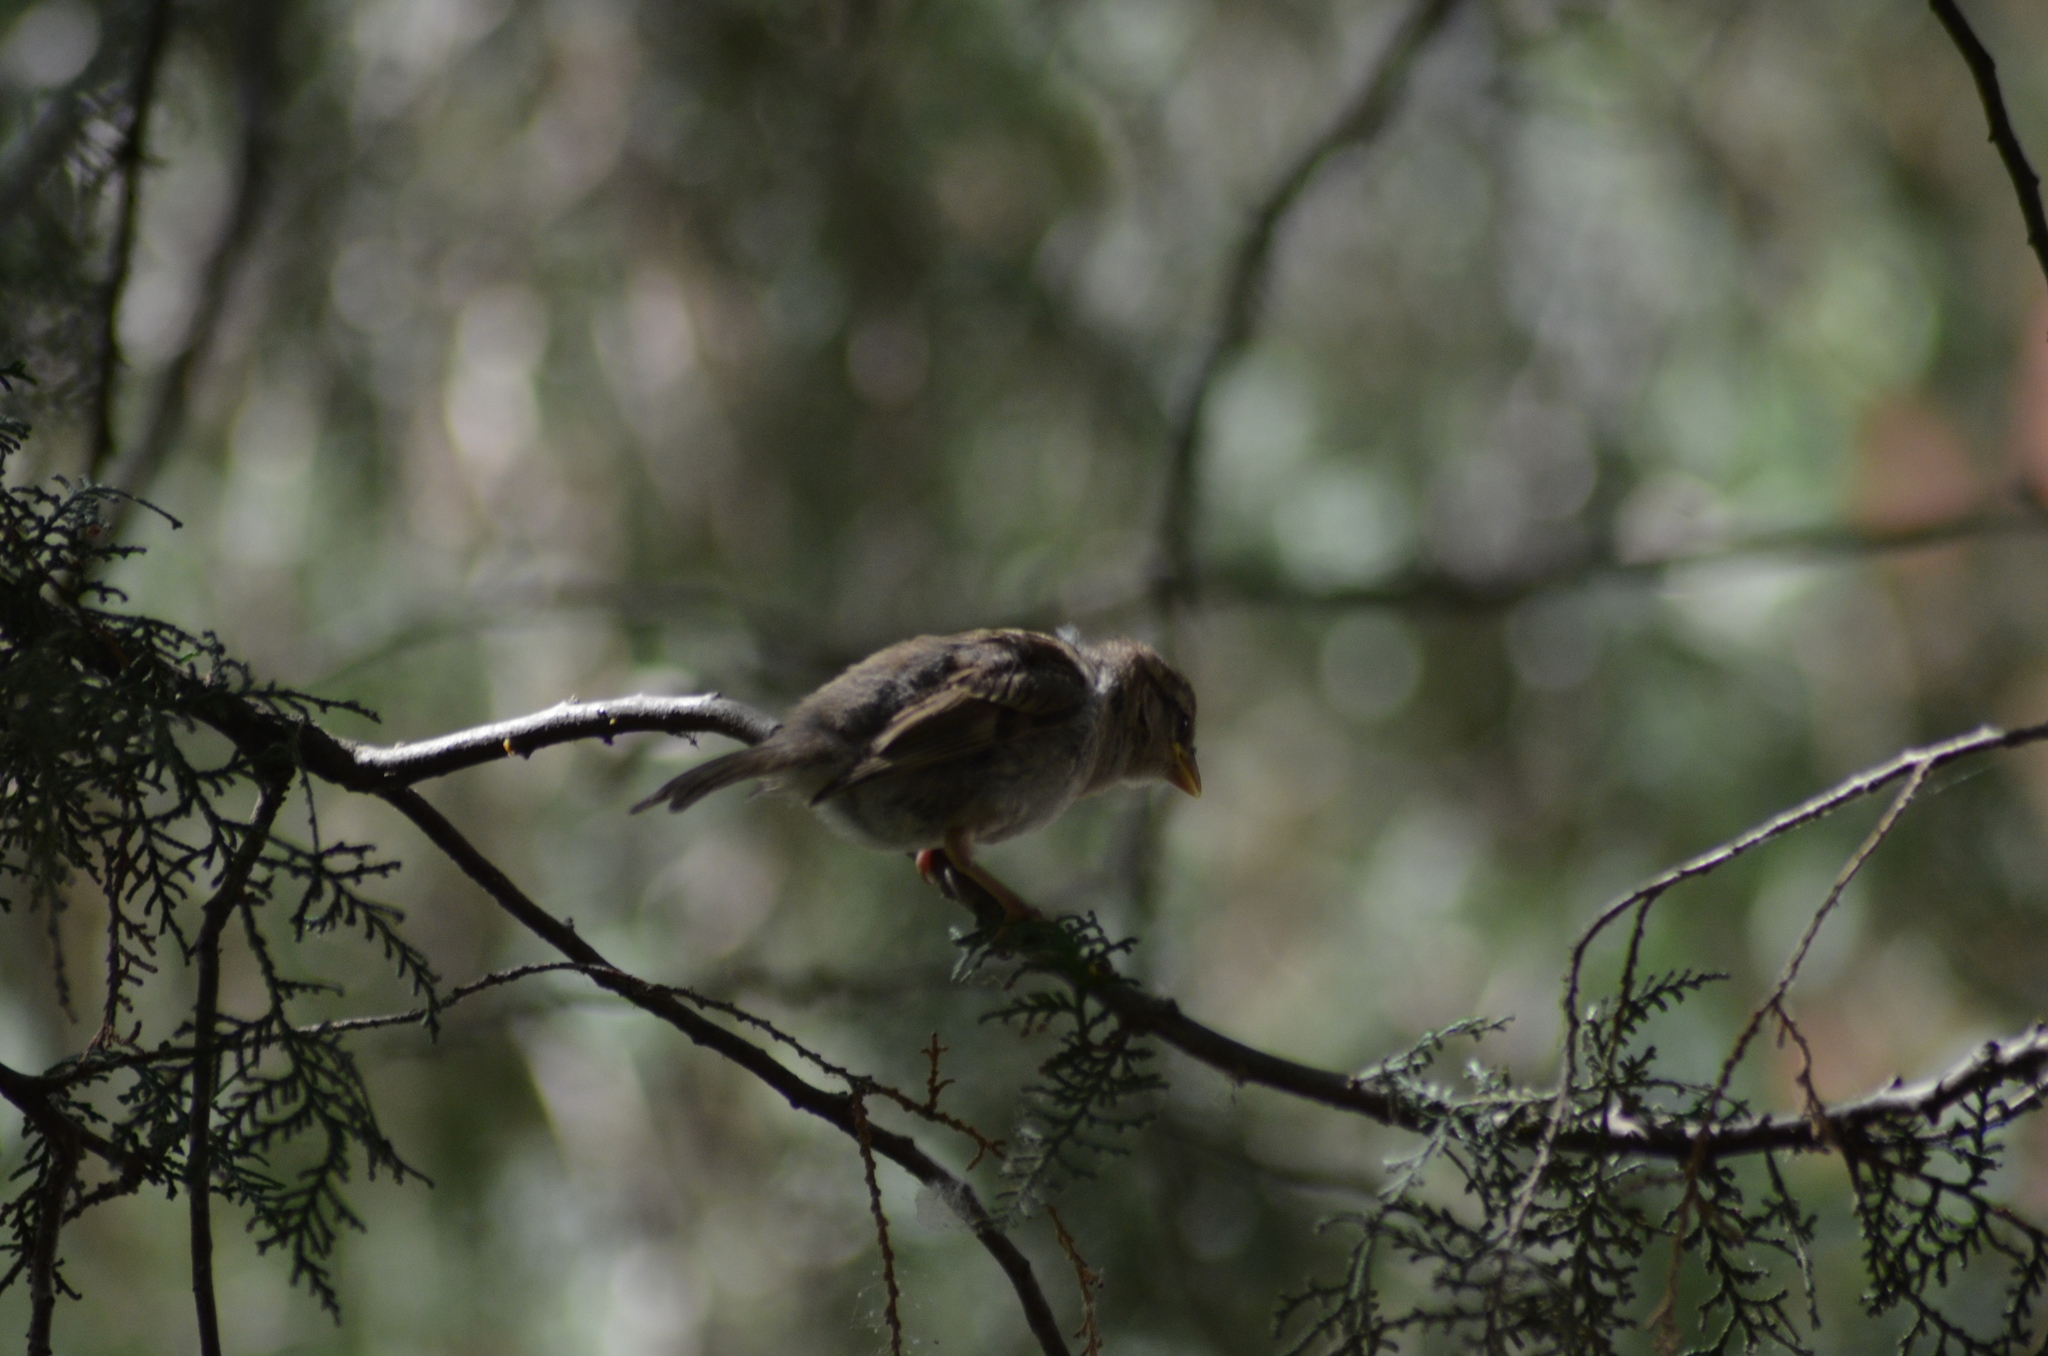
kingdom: Animalia
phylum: Chordata
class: Aves
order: Passeriformes
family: Passeridae
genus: Passer
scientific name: Passer domesticus
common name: House sparrow
